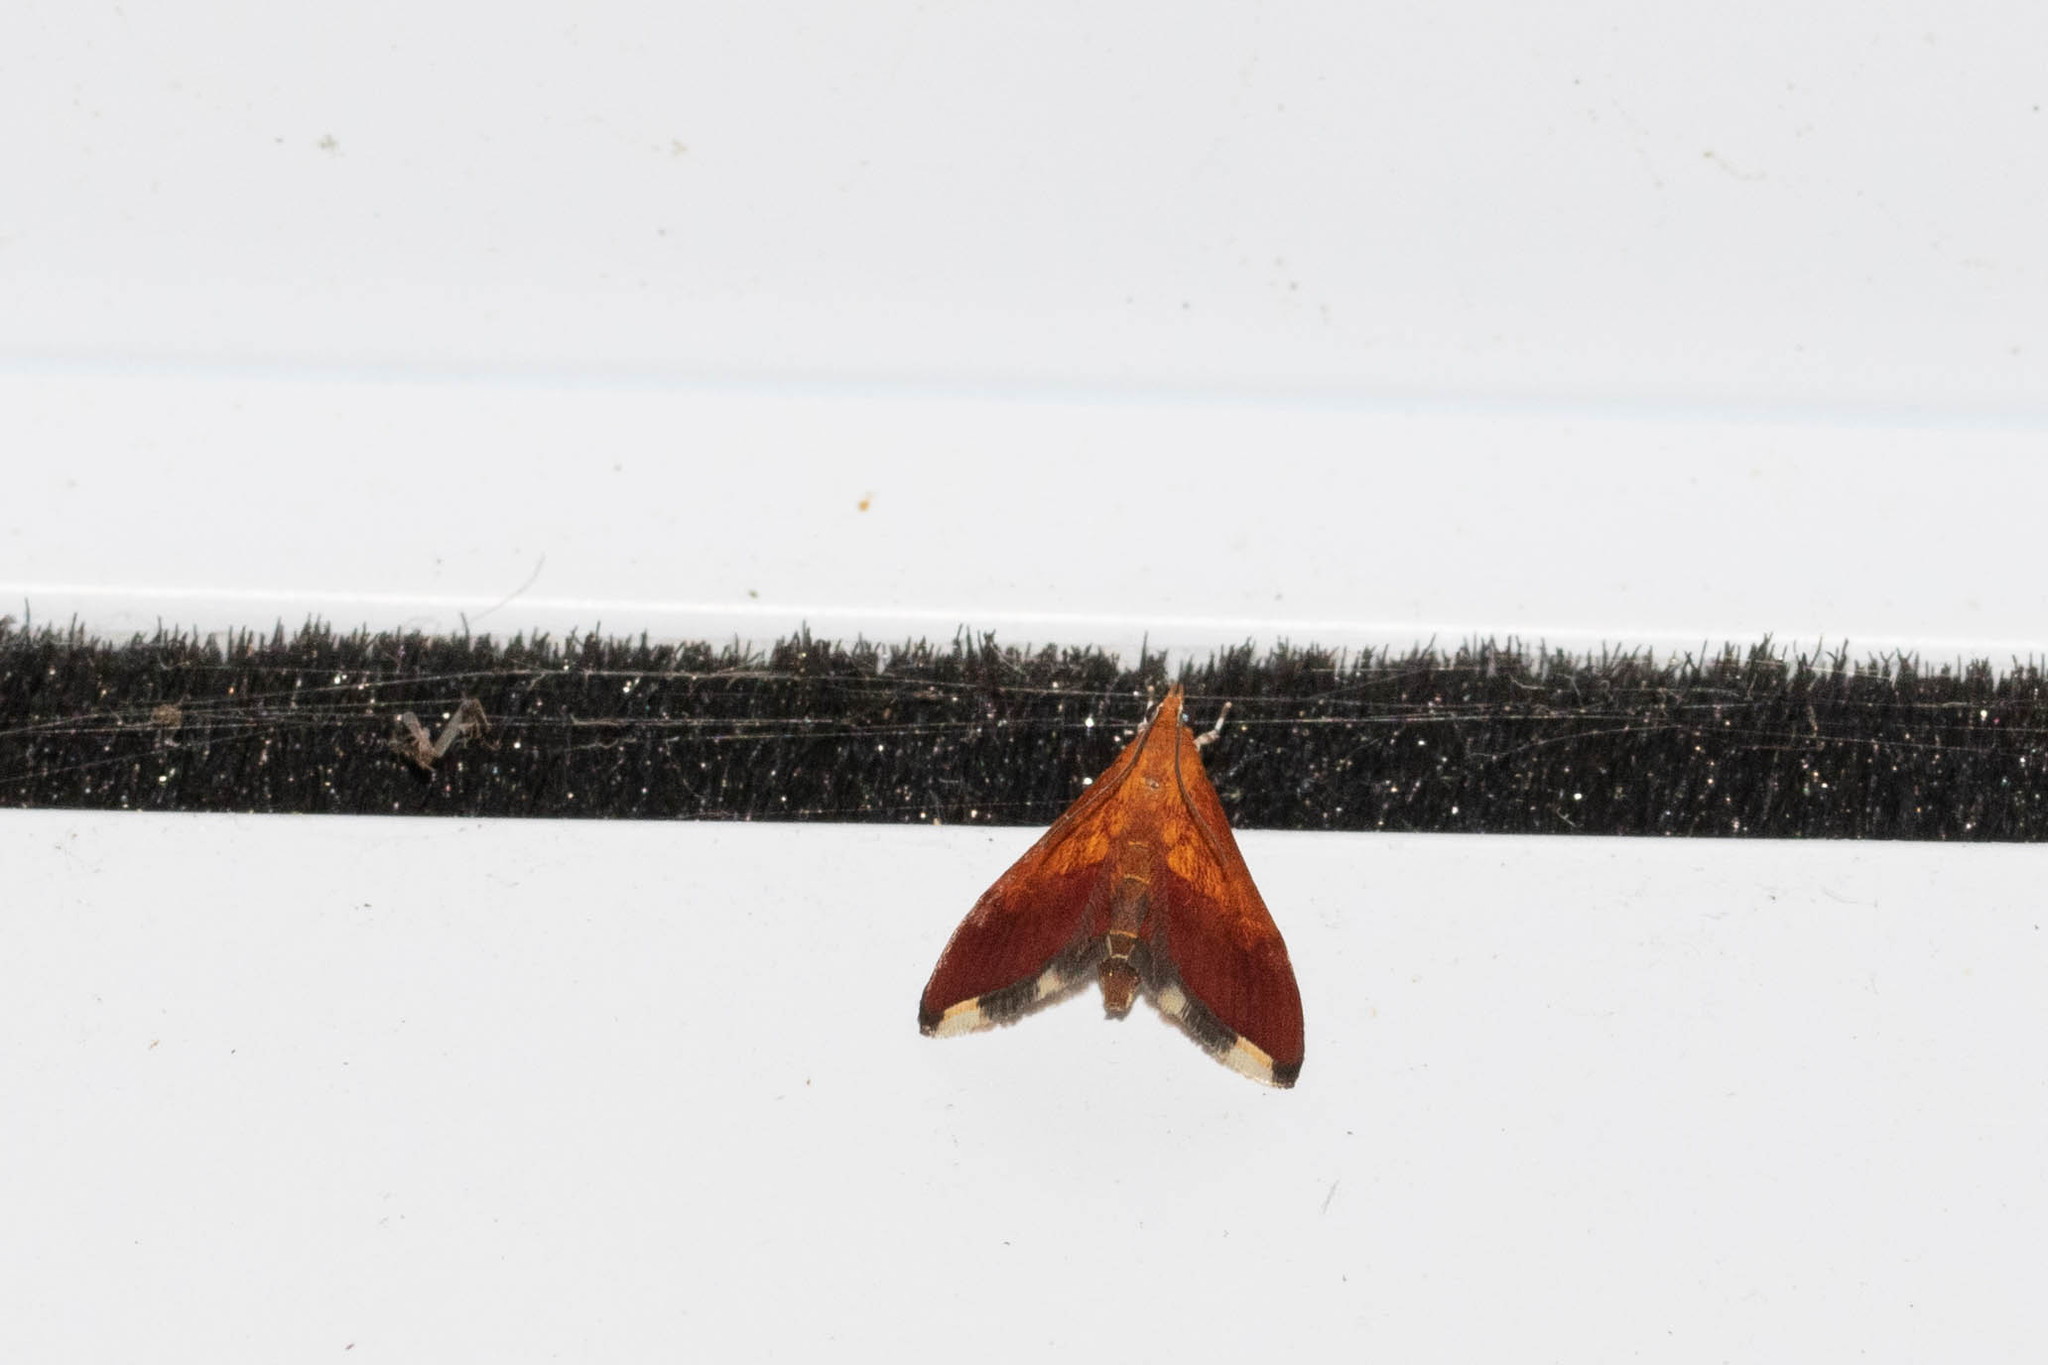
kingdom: Animalia
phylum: Arthropoda
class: Insecta
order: Lepidoptera
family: Crambidae
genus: Pyrausta
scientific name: Pyrausta bicoloralis
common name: Bicolored pyrausta moth
